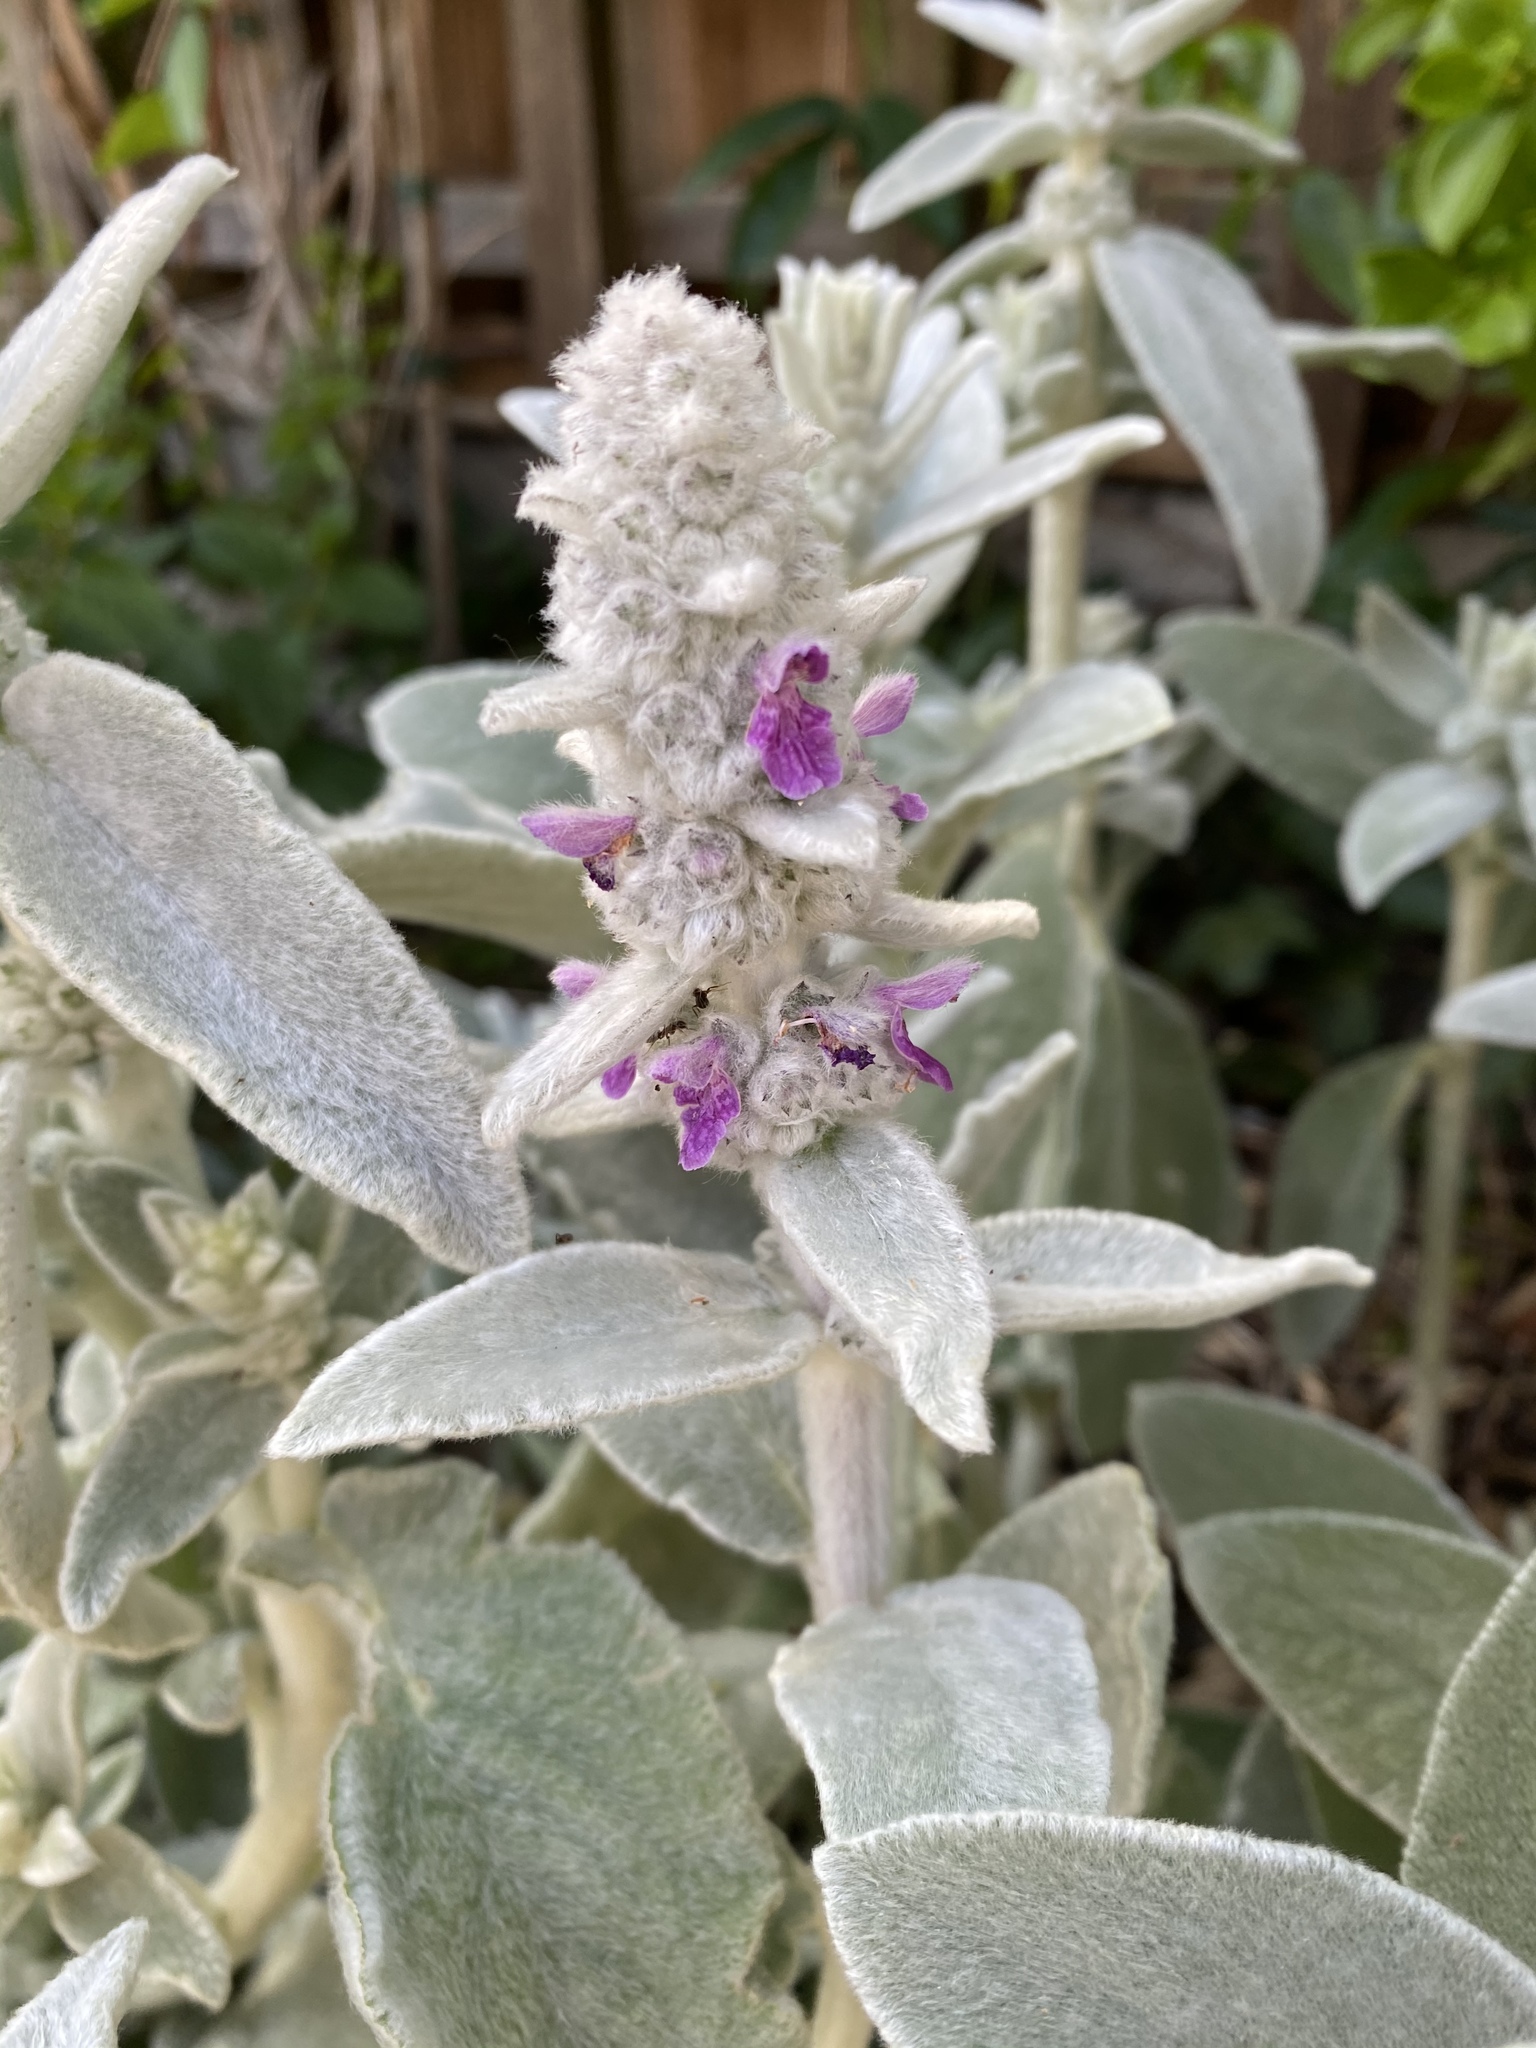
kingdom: Plantae
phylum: Tracheophyta
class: Magnoliopsida
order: Lamiales
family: Lamiaceae
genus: Stachys
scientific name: Stachys byzantina
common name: Lamb's-ear
